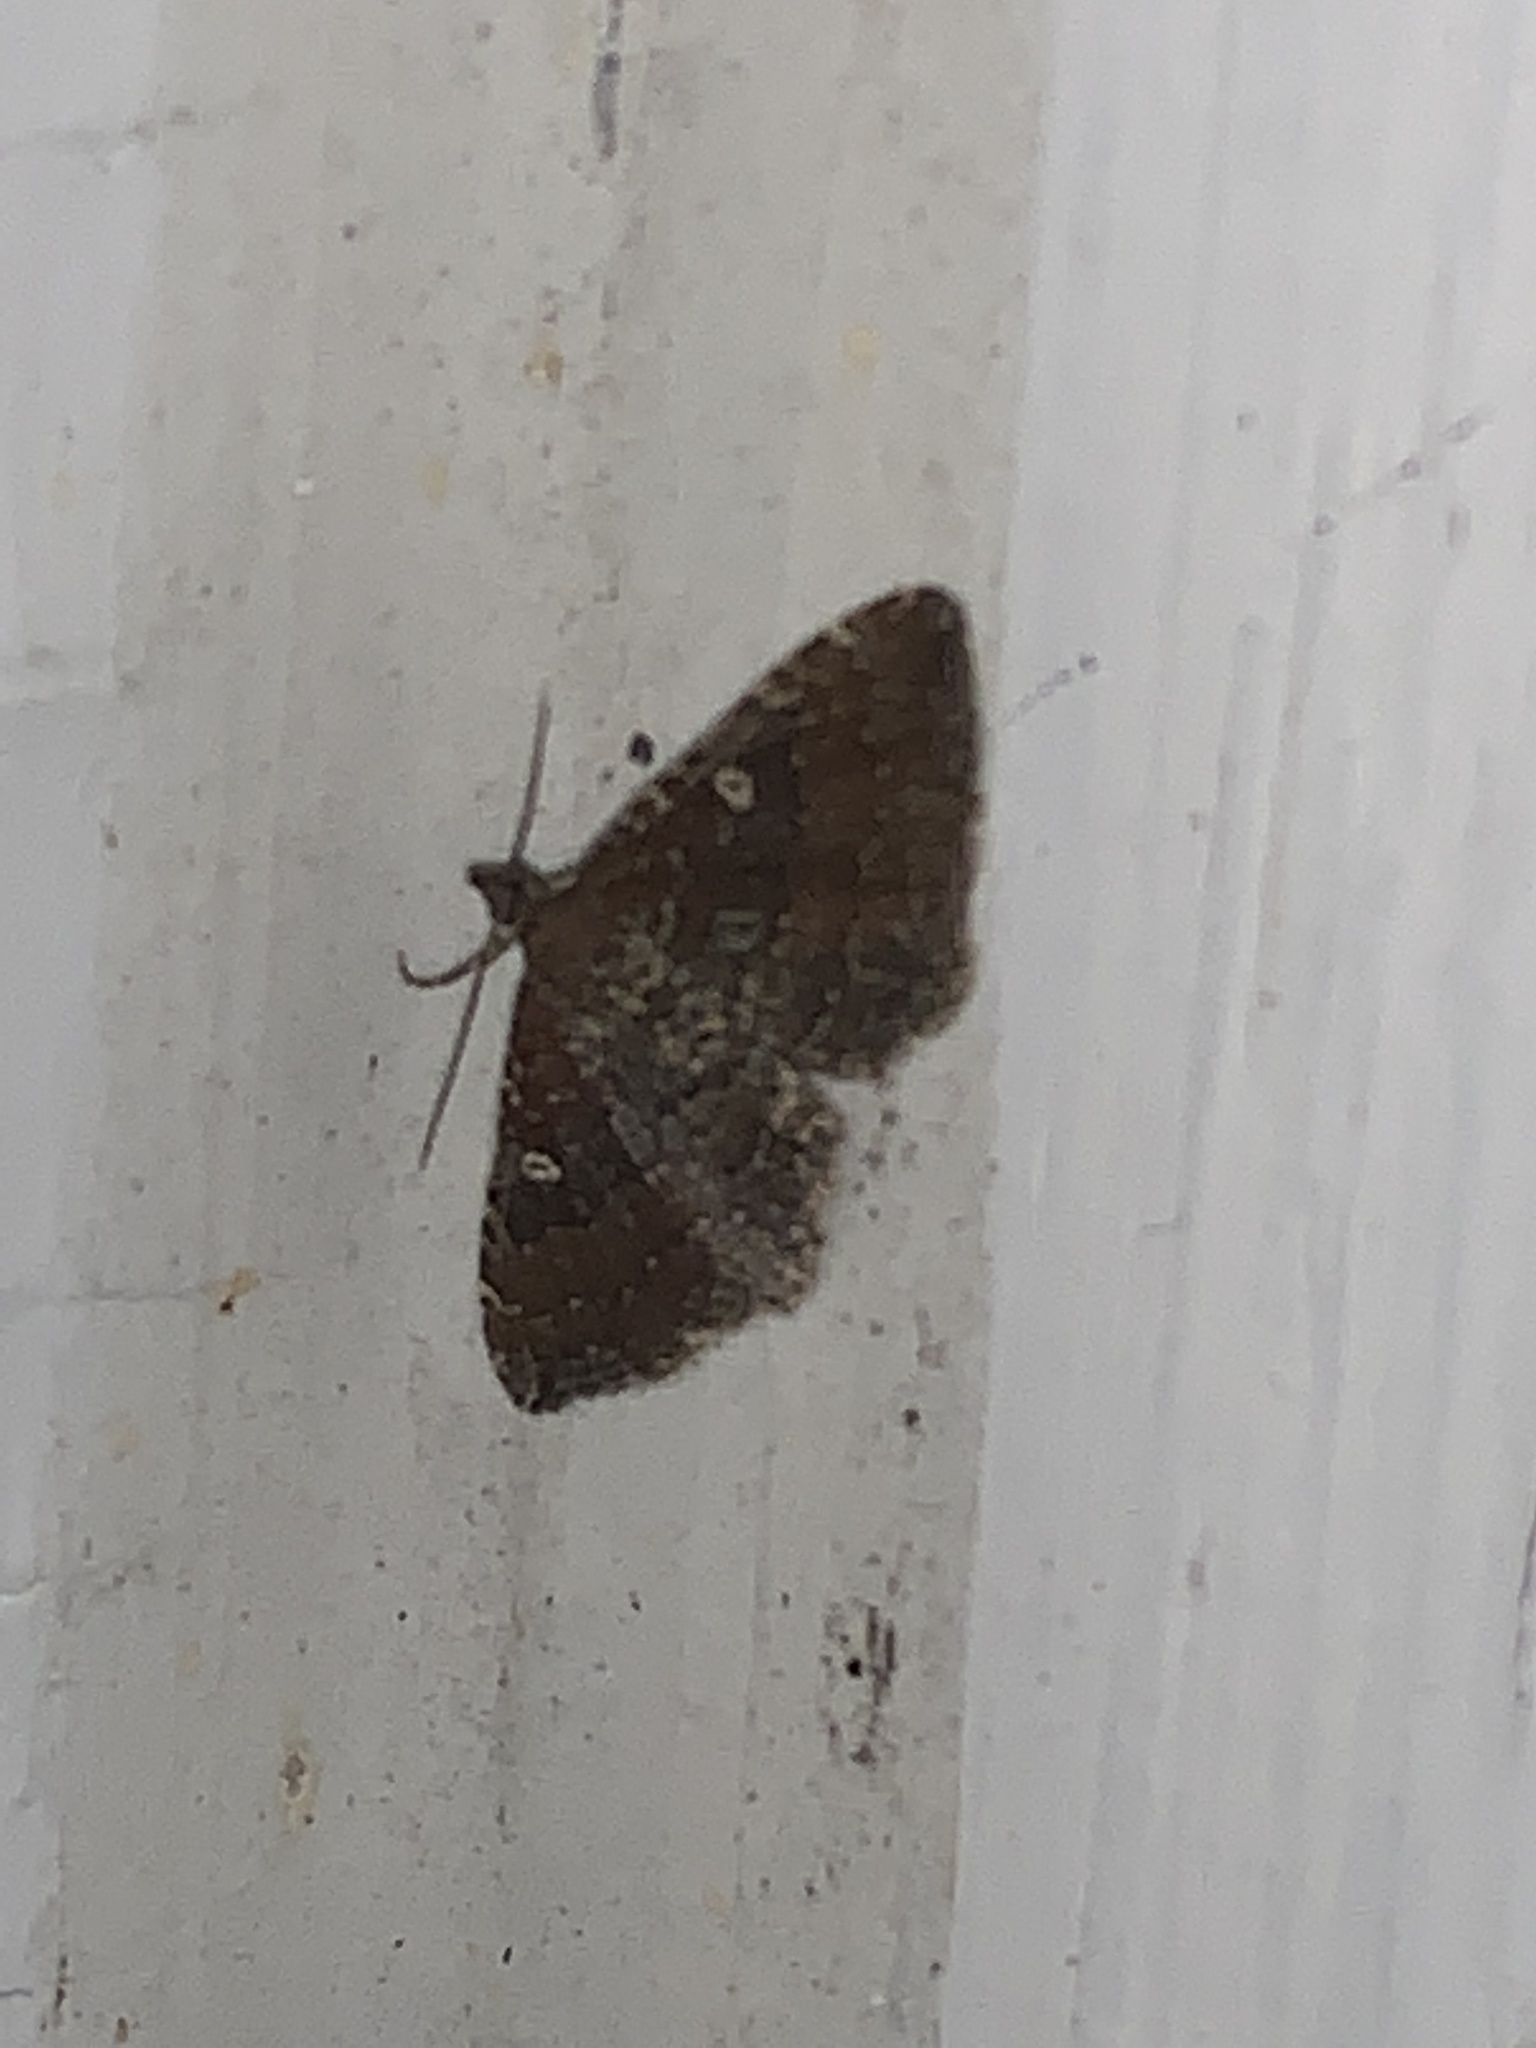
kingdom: Animalia
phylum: Arthropoda
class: Insecta
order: Lepidoptera
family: Geometridae
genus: Orthonama
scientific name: Orthonama obstipata
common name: The gem
